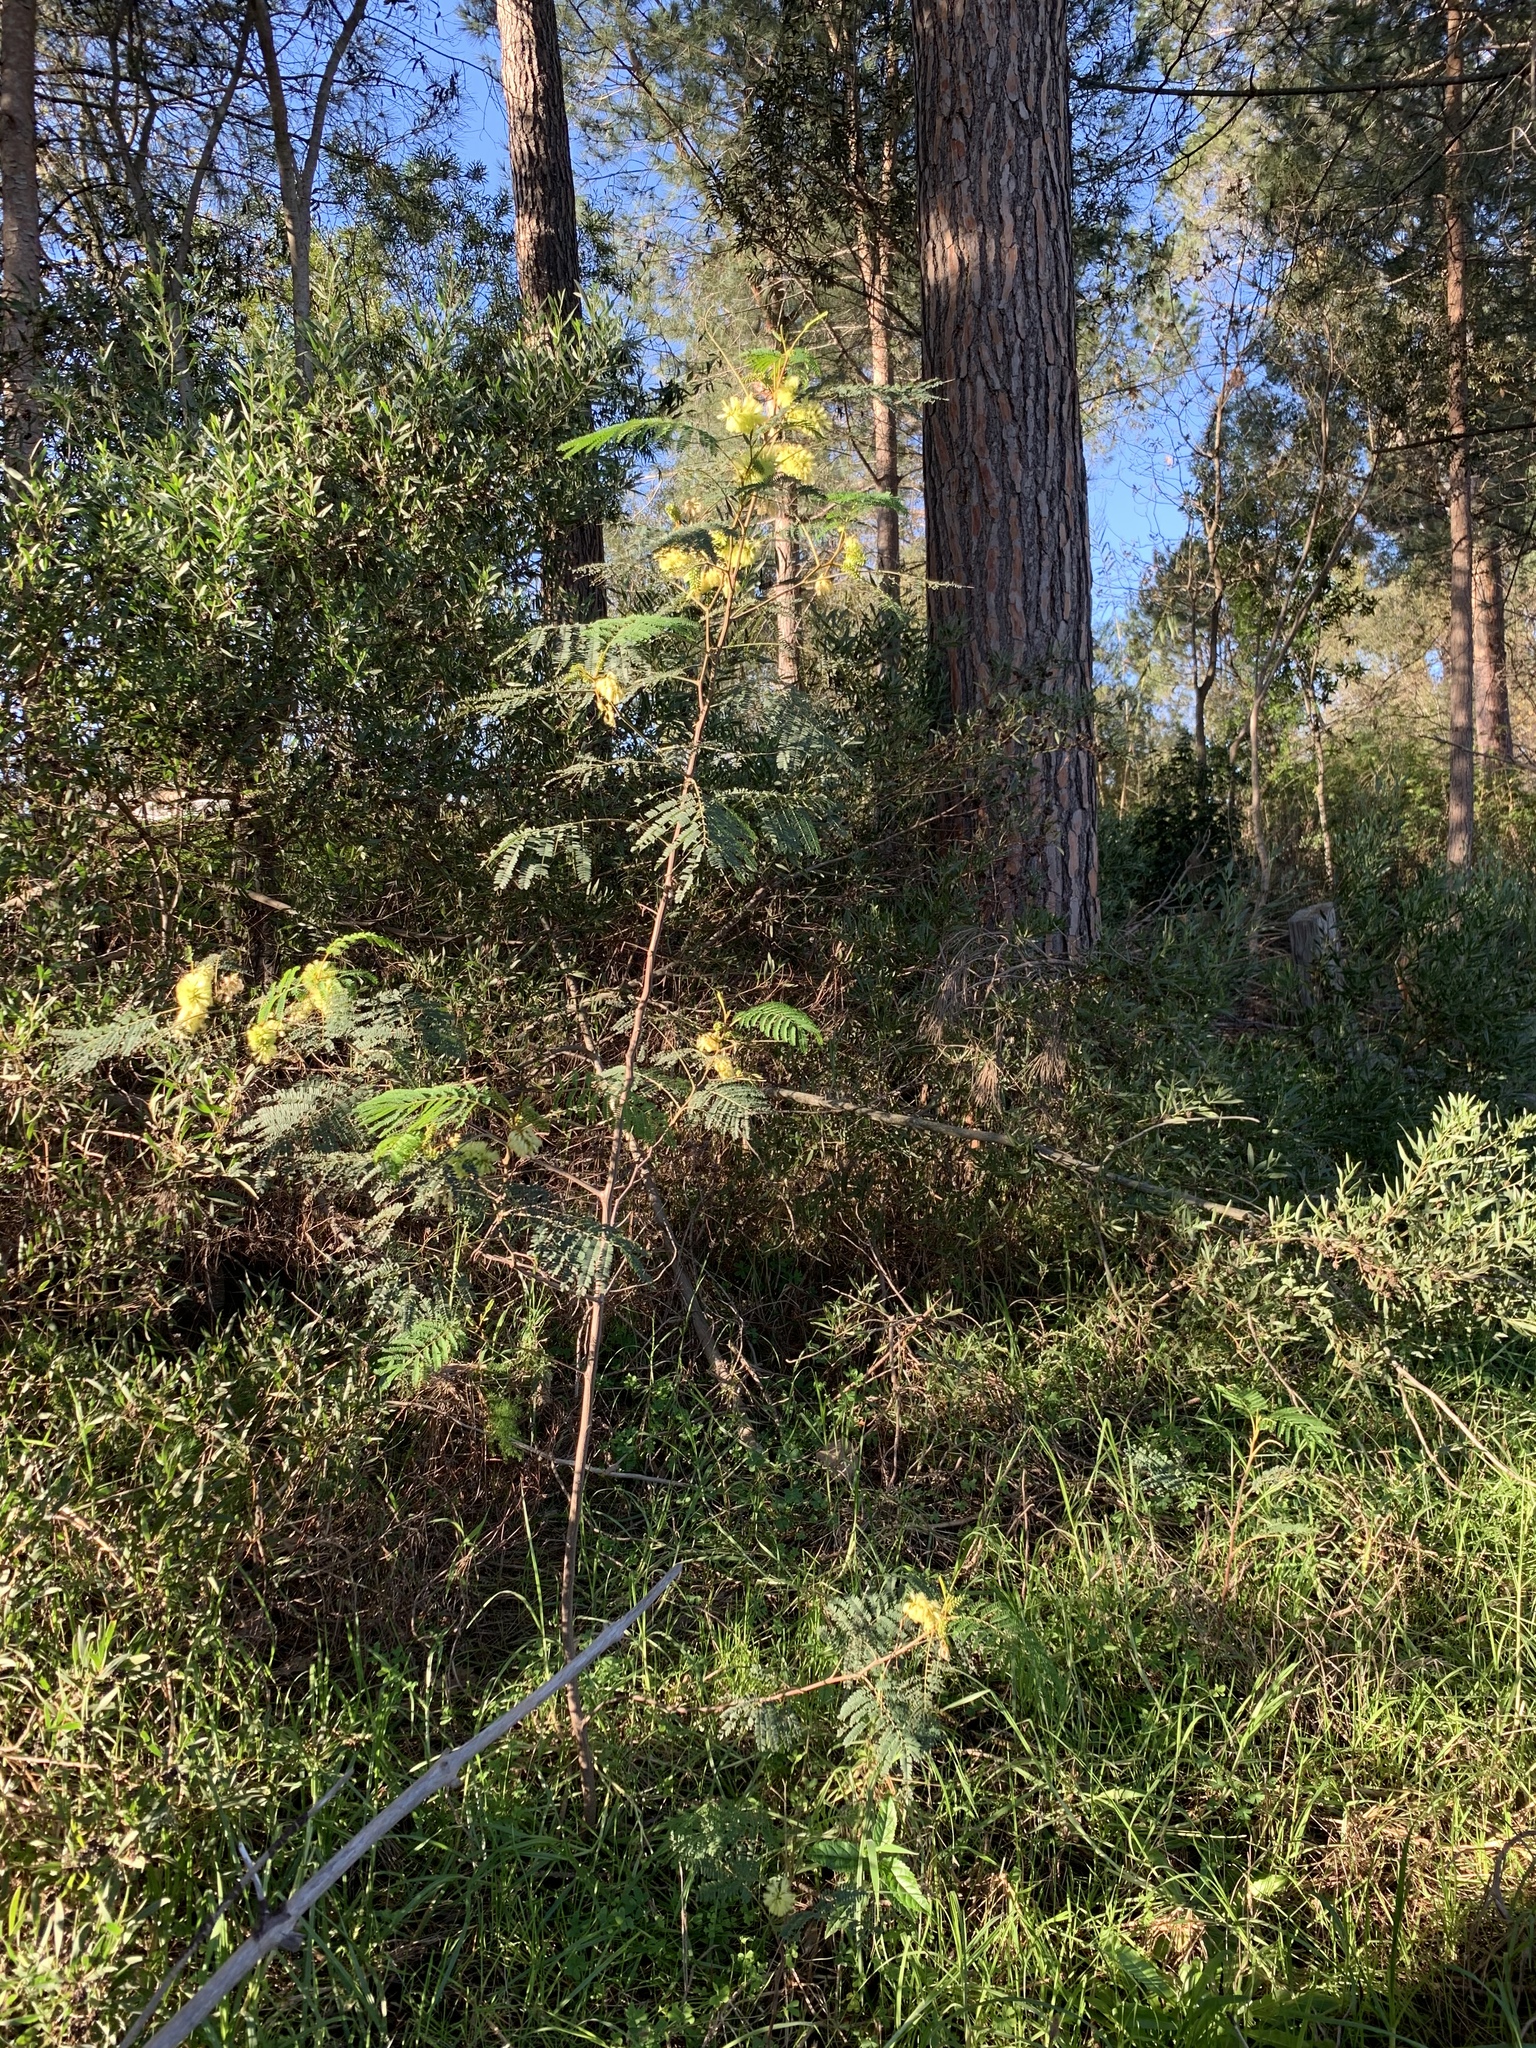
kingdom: Plantae
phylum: Tracheophyta
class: Magnoliopsida
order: Fabales
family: Fabaceae
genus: Paraserianthes
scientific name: Paraserianthes lophantha
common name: Plume albizia
